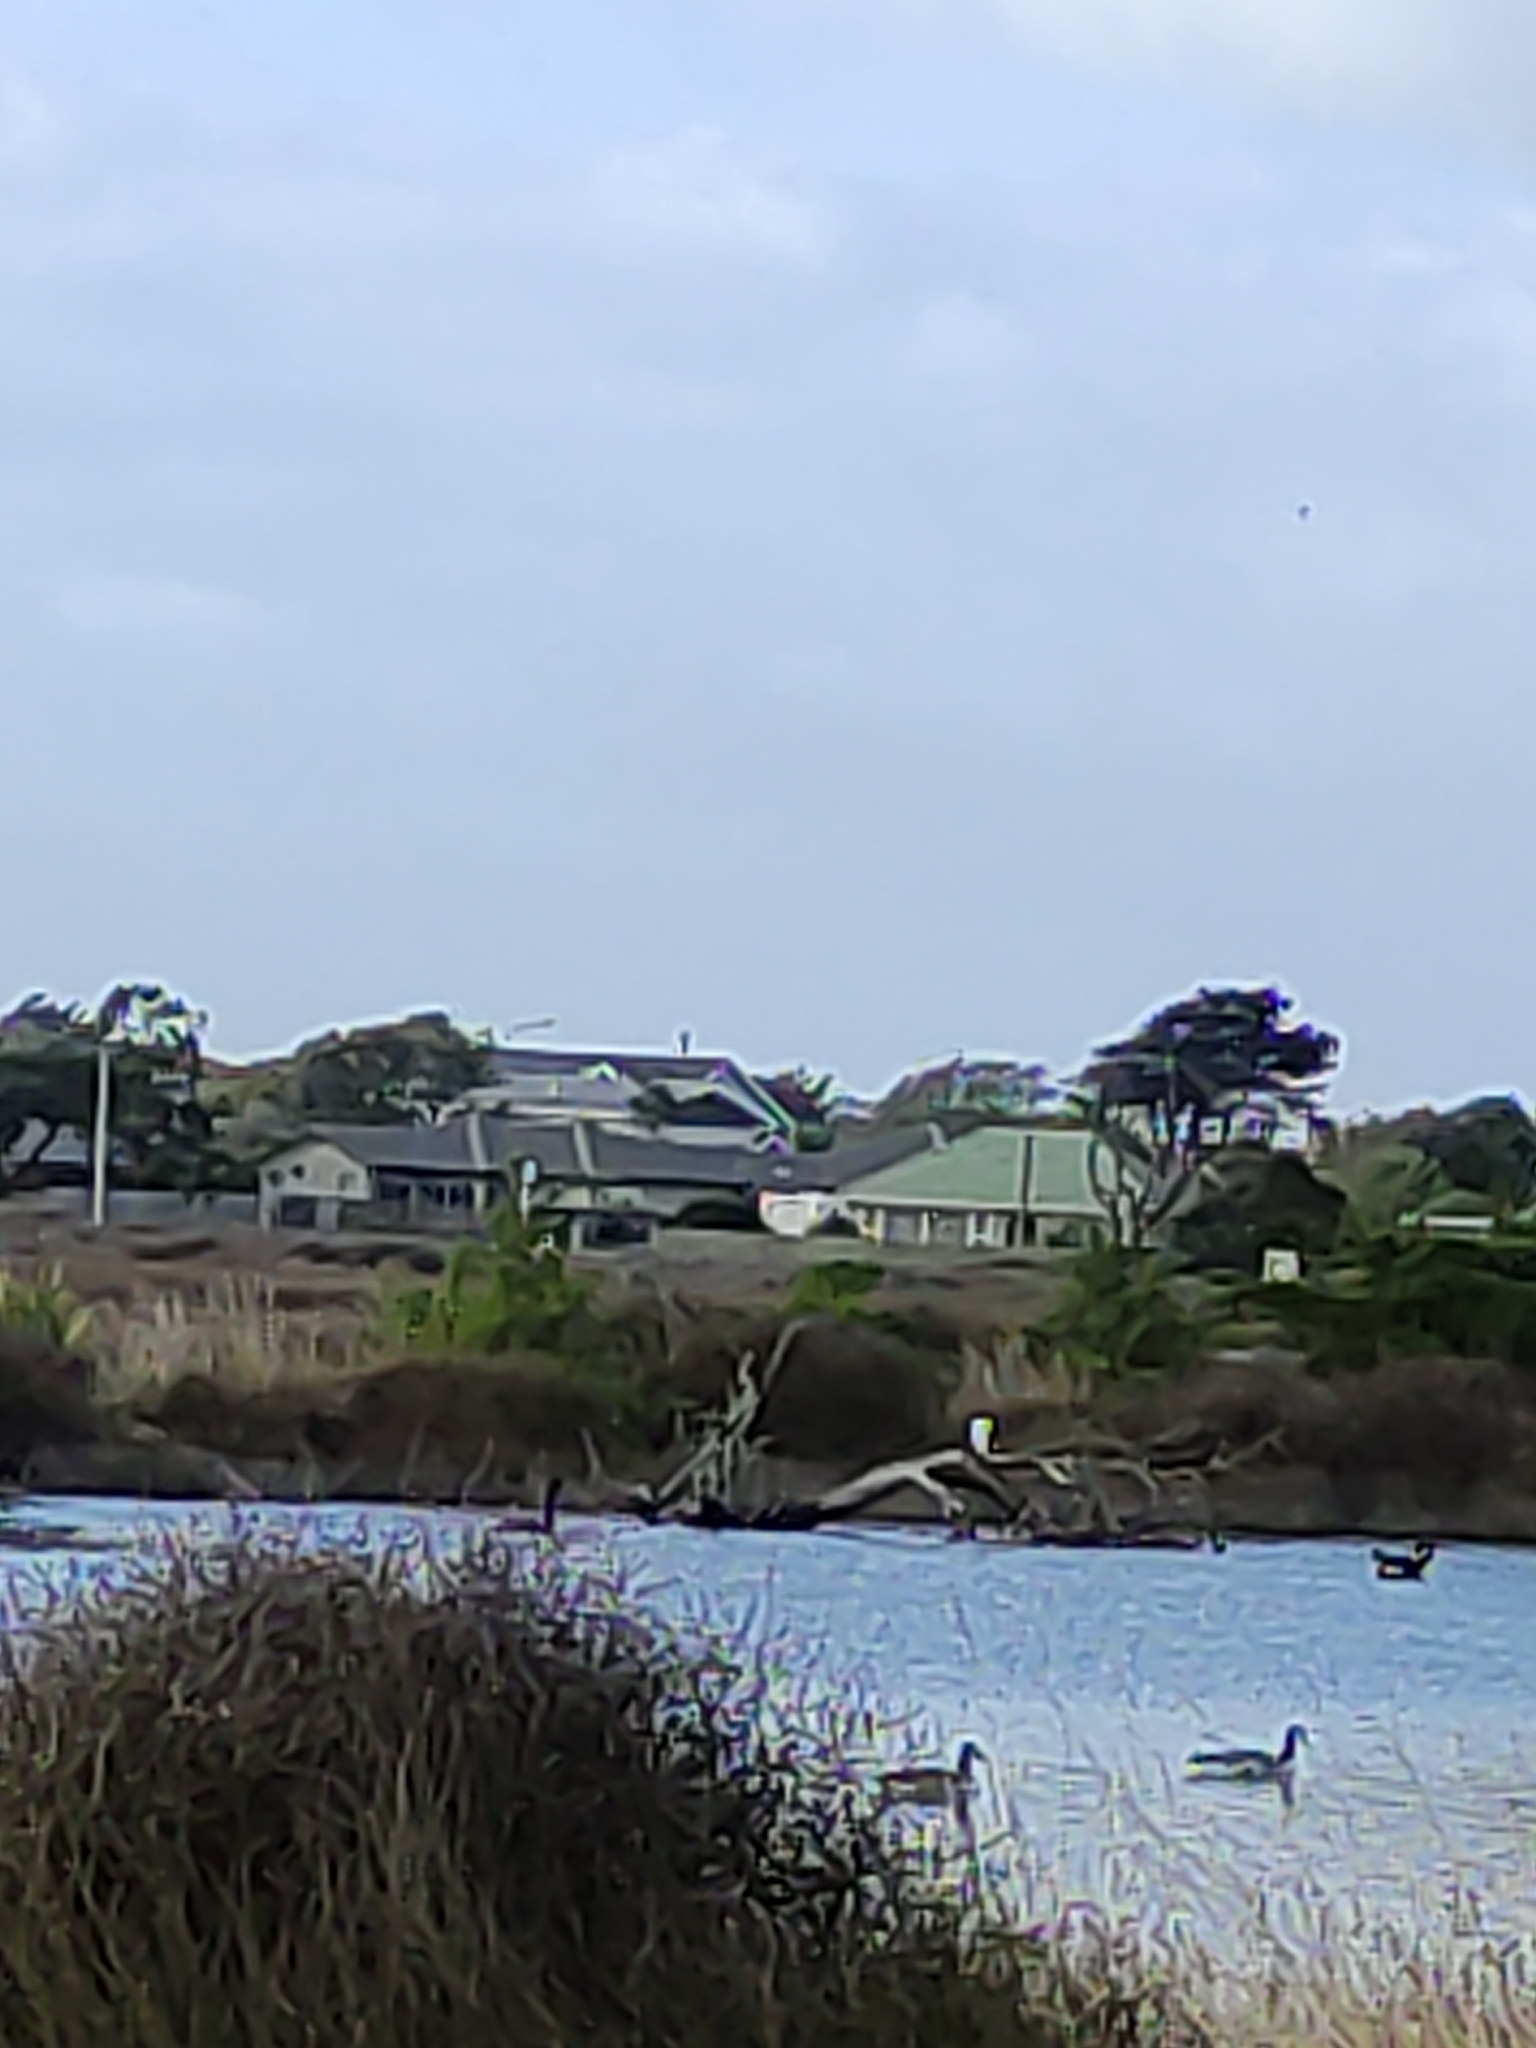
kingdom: Animalia
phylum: Chordata
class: Aves
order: Suliformes
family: Phalacrocoracidae
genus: Phalacrocorax
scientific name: Phalacrocorax varius
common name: Pied cormorant
